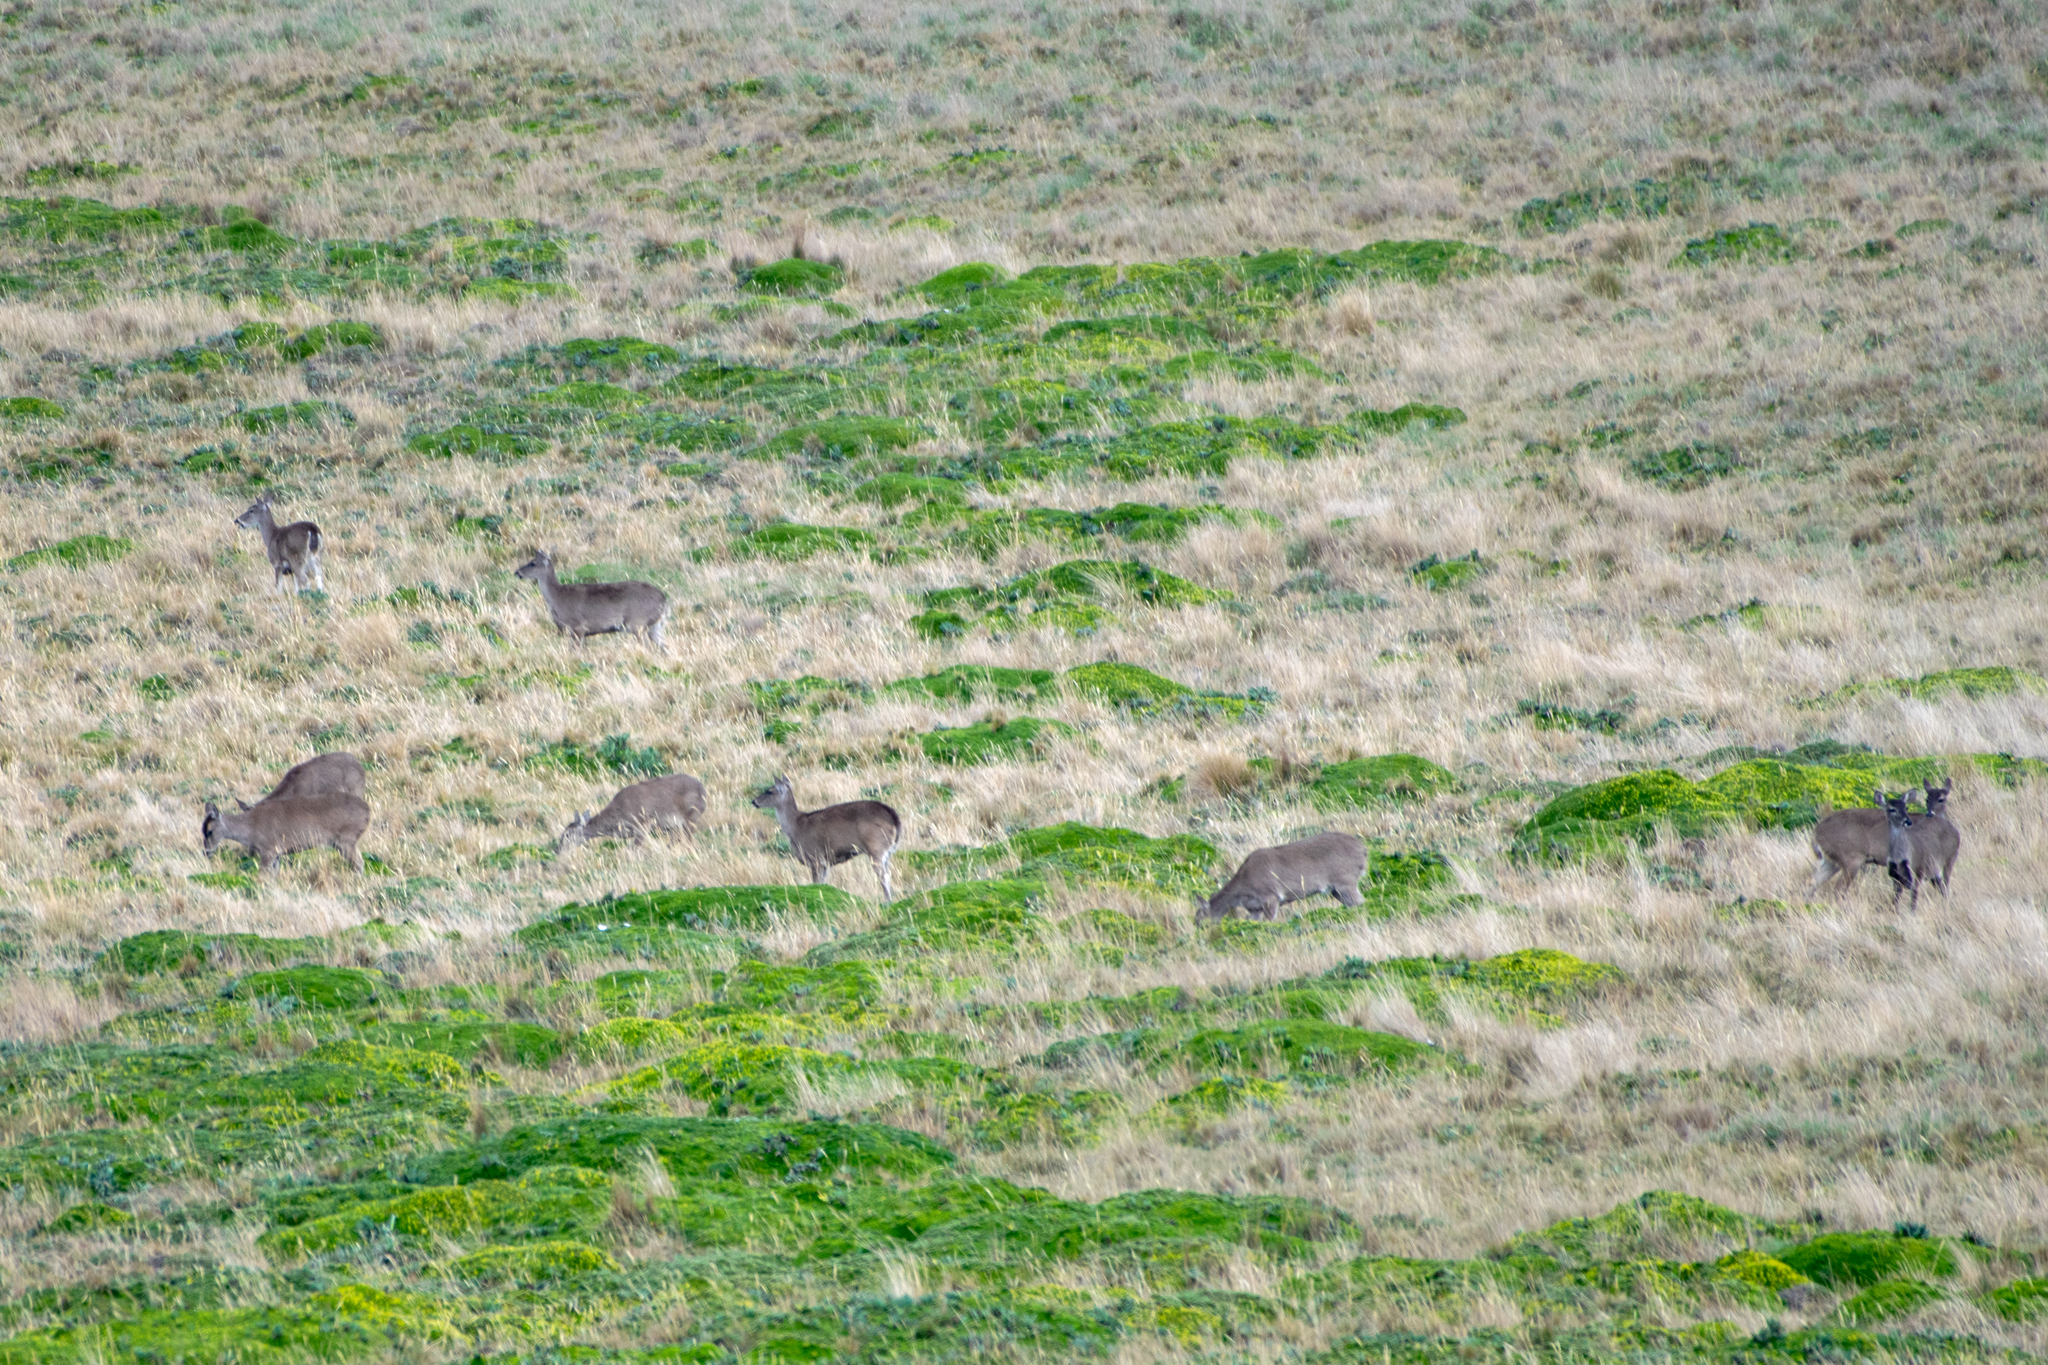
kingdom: Animalia
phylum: Chordata
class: Mammalia
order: Artiodactyla
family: Cervidae
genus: Odocoileus
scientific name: Odocoileus virginianus
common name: White-tailed deer
